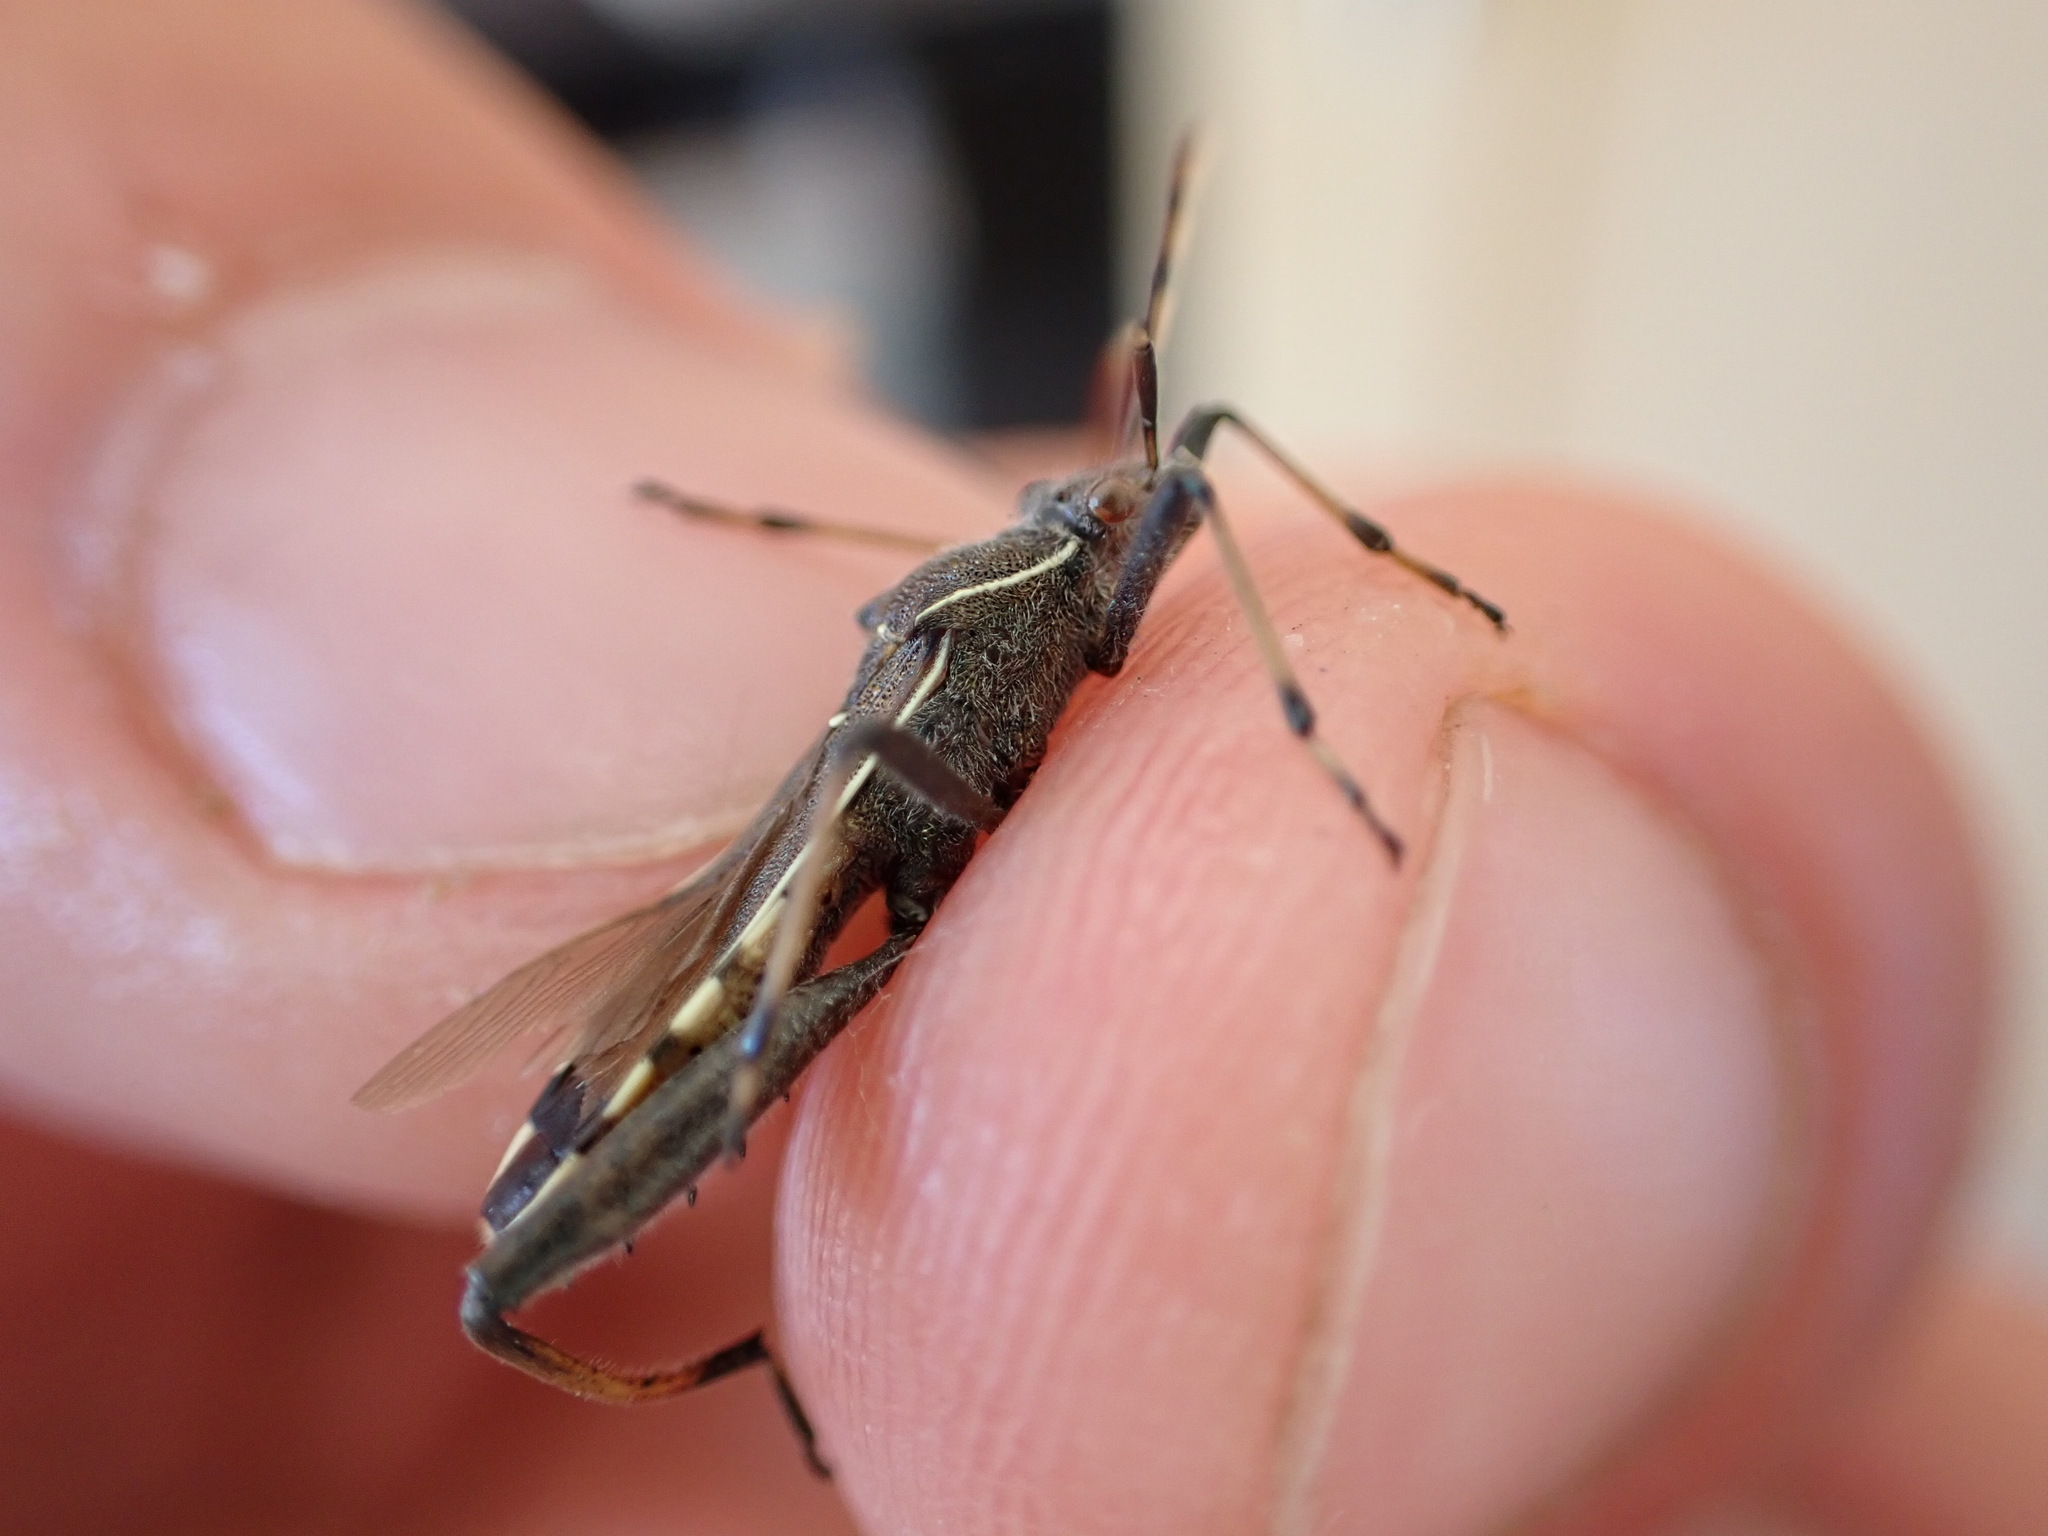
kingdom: Animalia
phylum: Arthropoda
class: Insecta
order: Hemiptera
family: Alydidae
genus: Camptopus
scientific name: Camptopus lateralis
